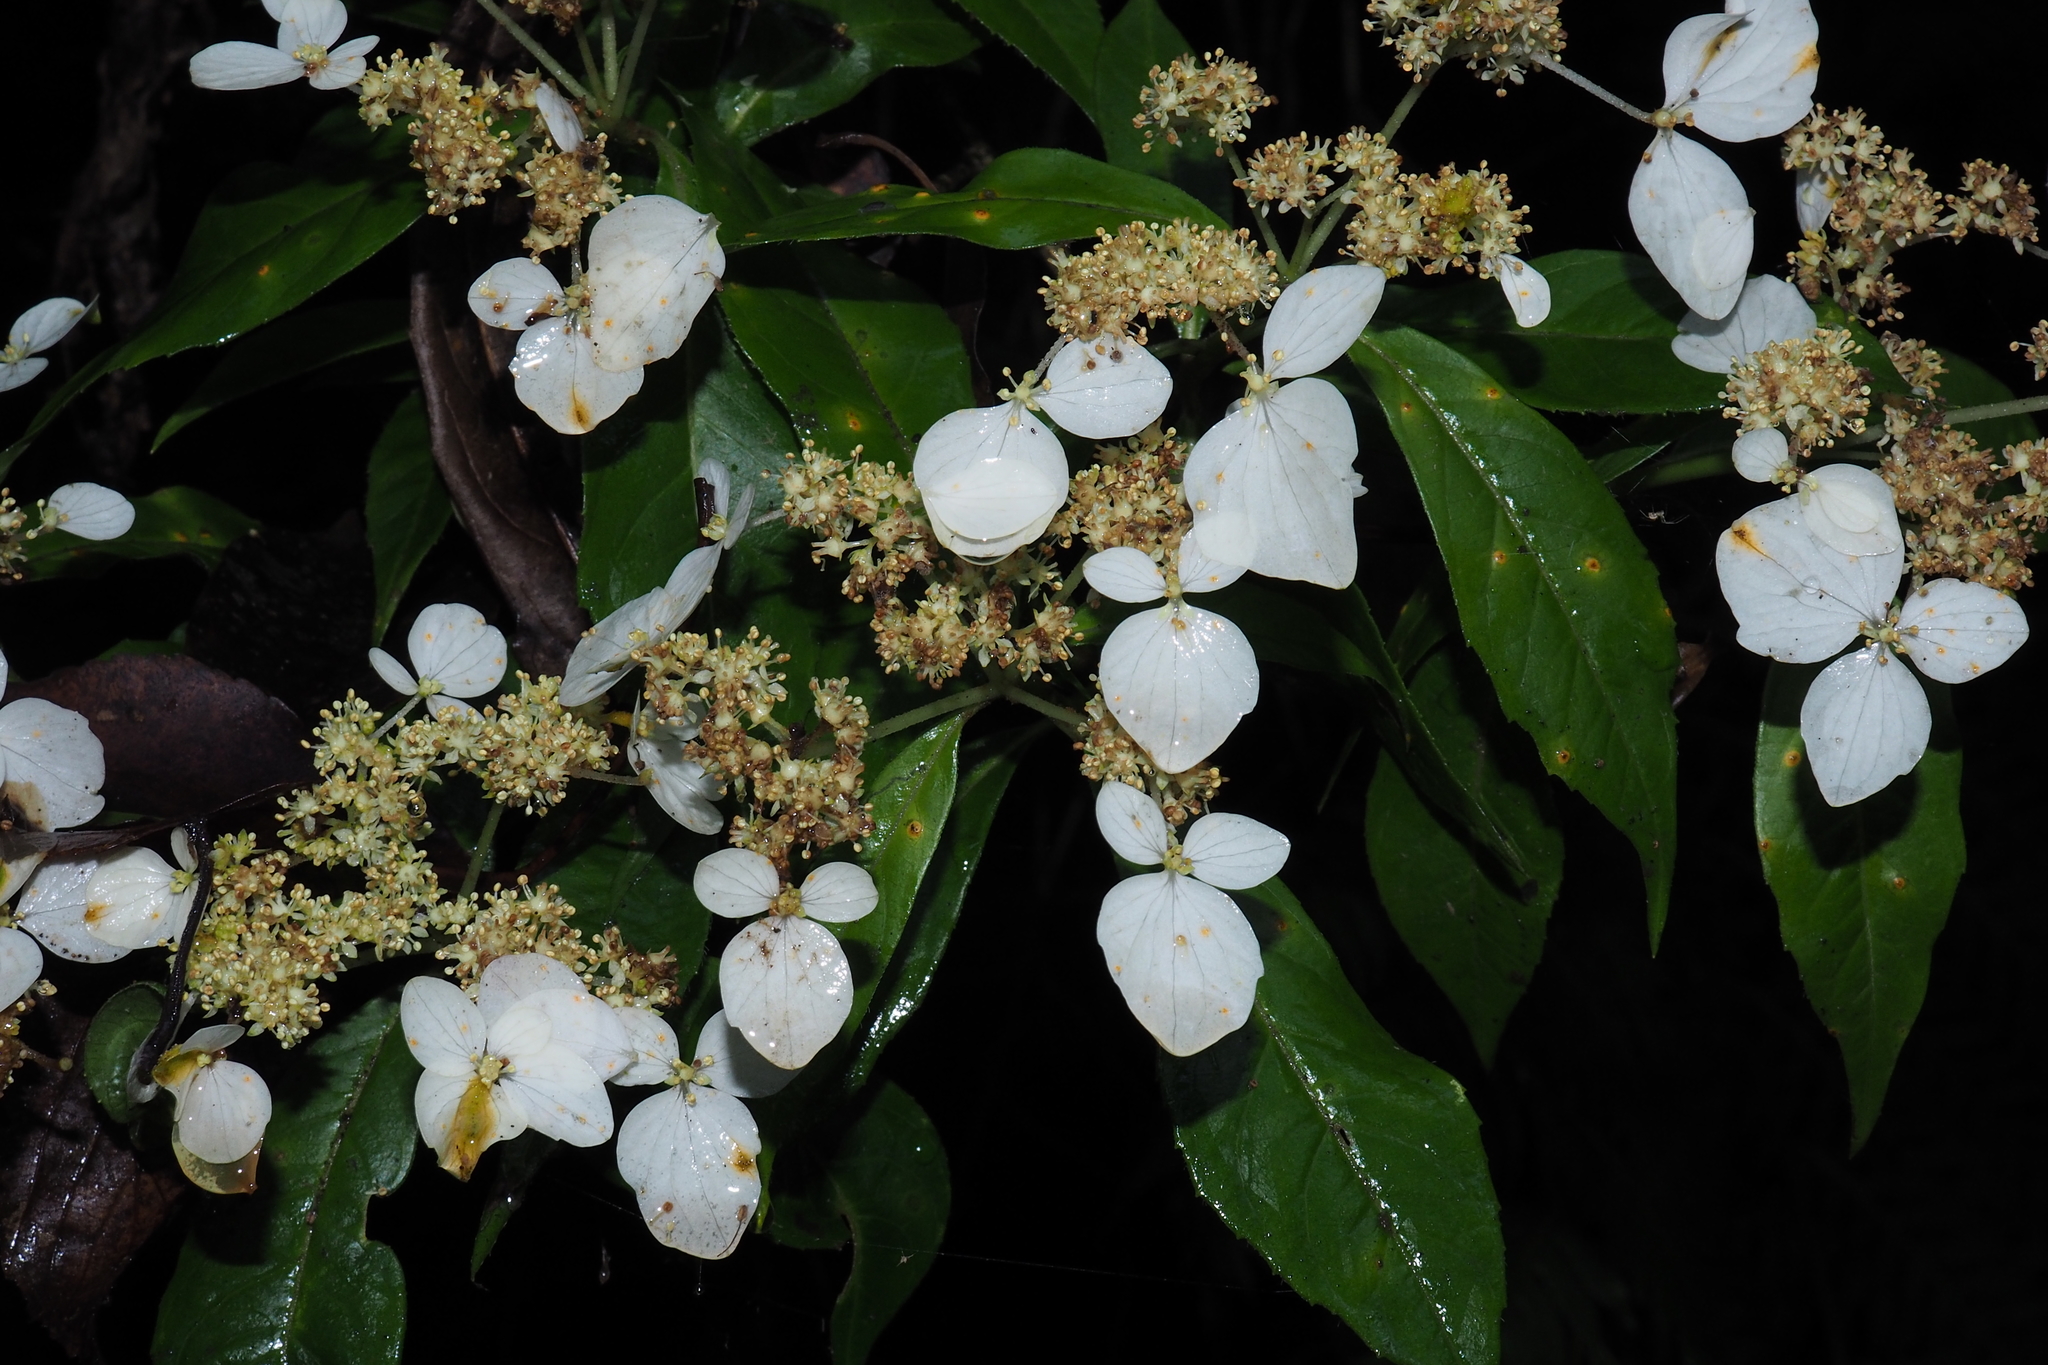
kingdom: Plantae
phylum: Tracheophyta
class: Magnoliopsida
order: Cornales
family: Hydrangeaceae
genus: Hydrangea
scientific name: Hydrangea chinensis
